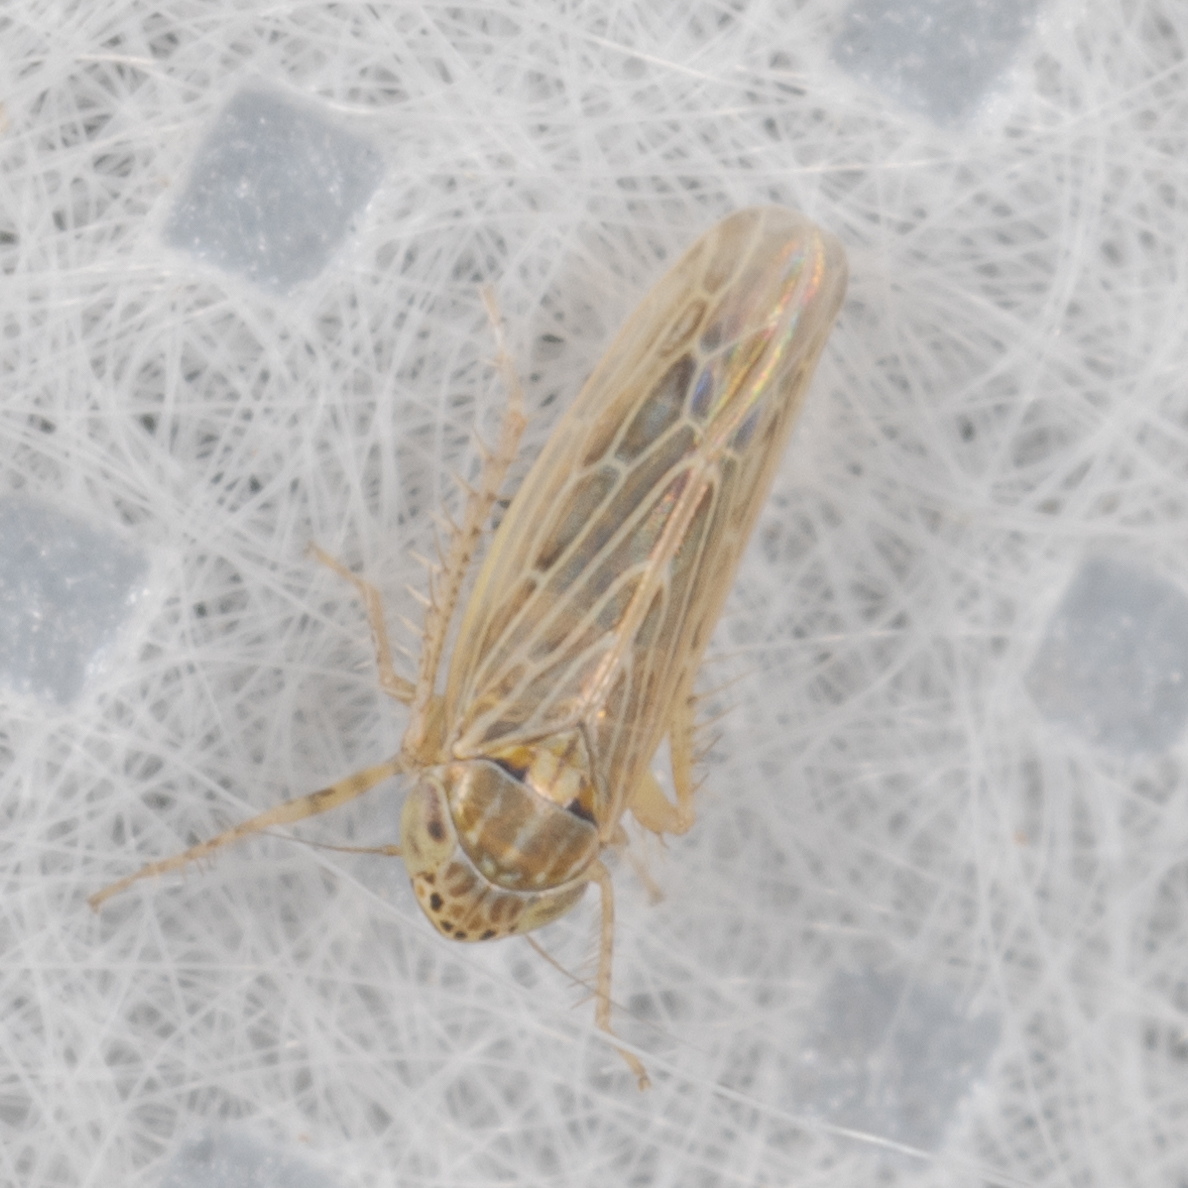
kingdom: Animalia
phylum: Arthropoda
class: Insecta
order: Hemiptera
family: Cicadellidae
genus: Graminella
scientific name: Graminella sonora
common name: Lesser lawn leafhopper
